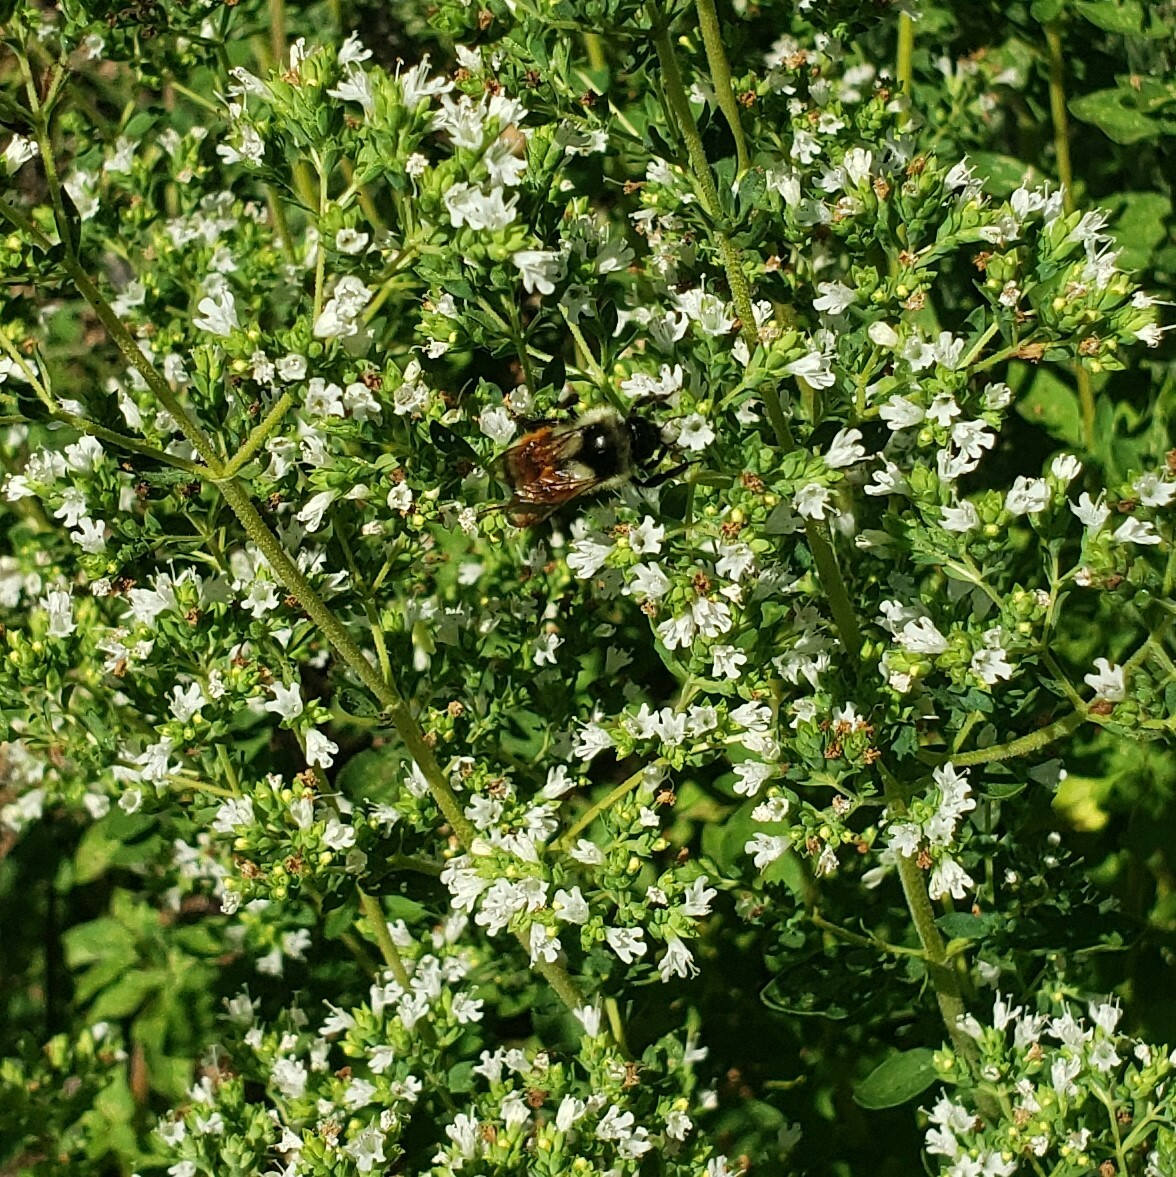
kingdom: Animalia
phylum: Arthropoda
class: Insecta
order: Hymenoptera
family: Apidae
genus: Bombus
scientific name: Bombus ternarius
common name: Tri-colored bumble bee
